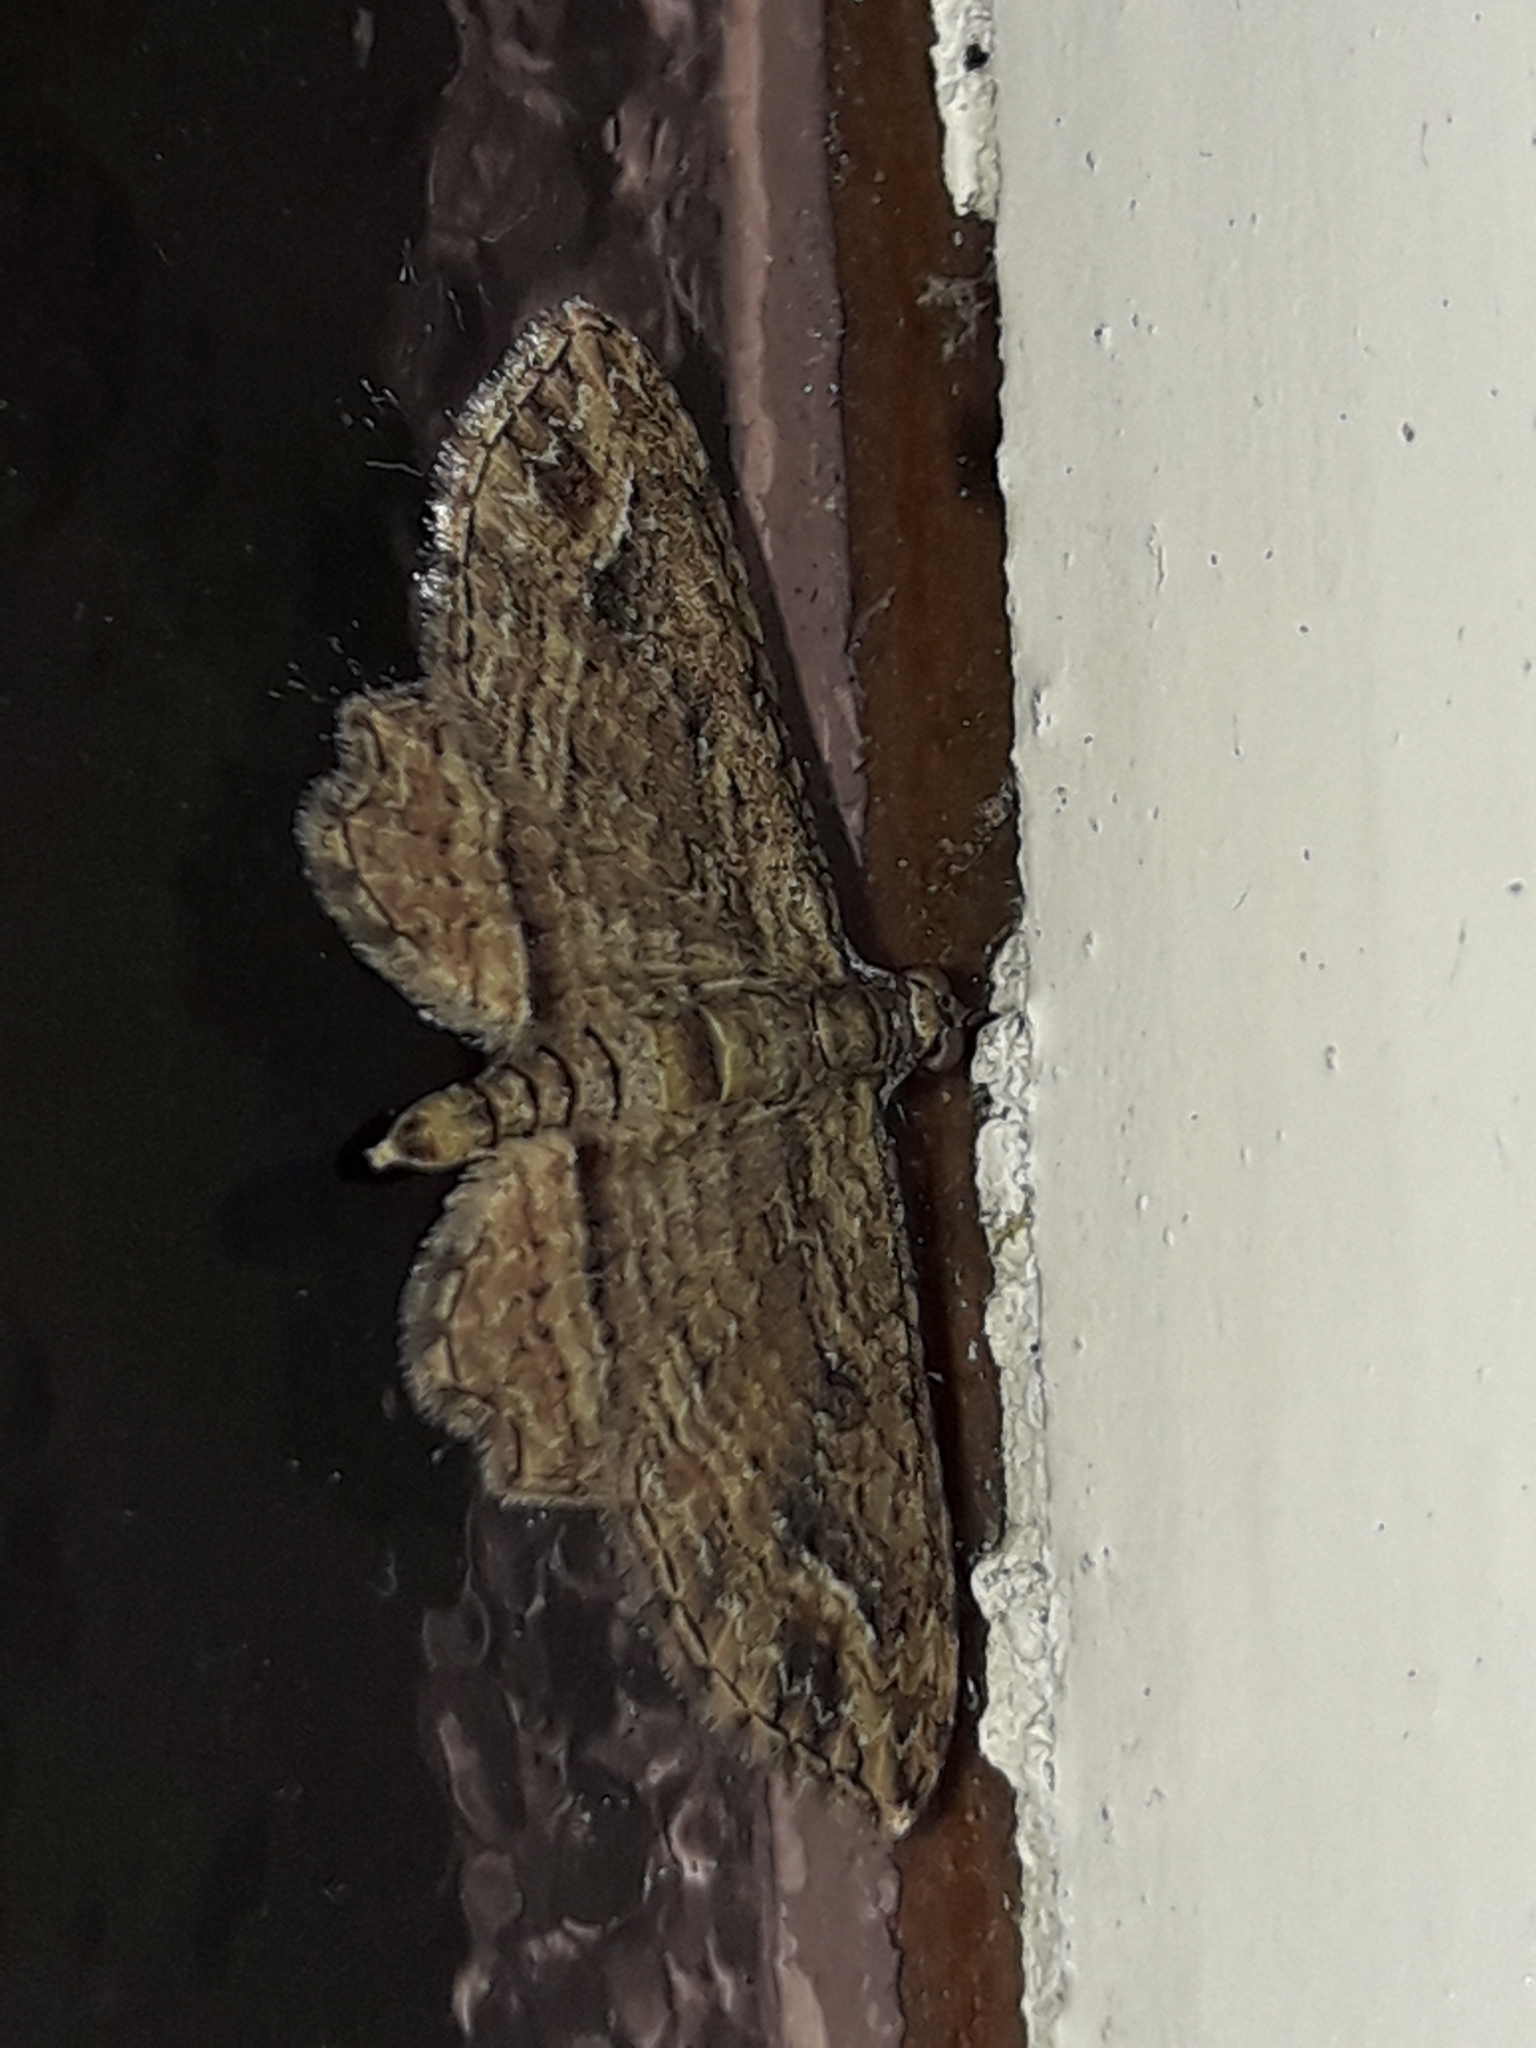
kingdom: Animalia
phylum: Arthropoda
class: Insecta
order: Lepidoptera
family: Geometridae
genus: Chloroclystis
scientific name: Chloroclystis filata
